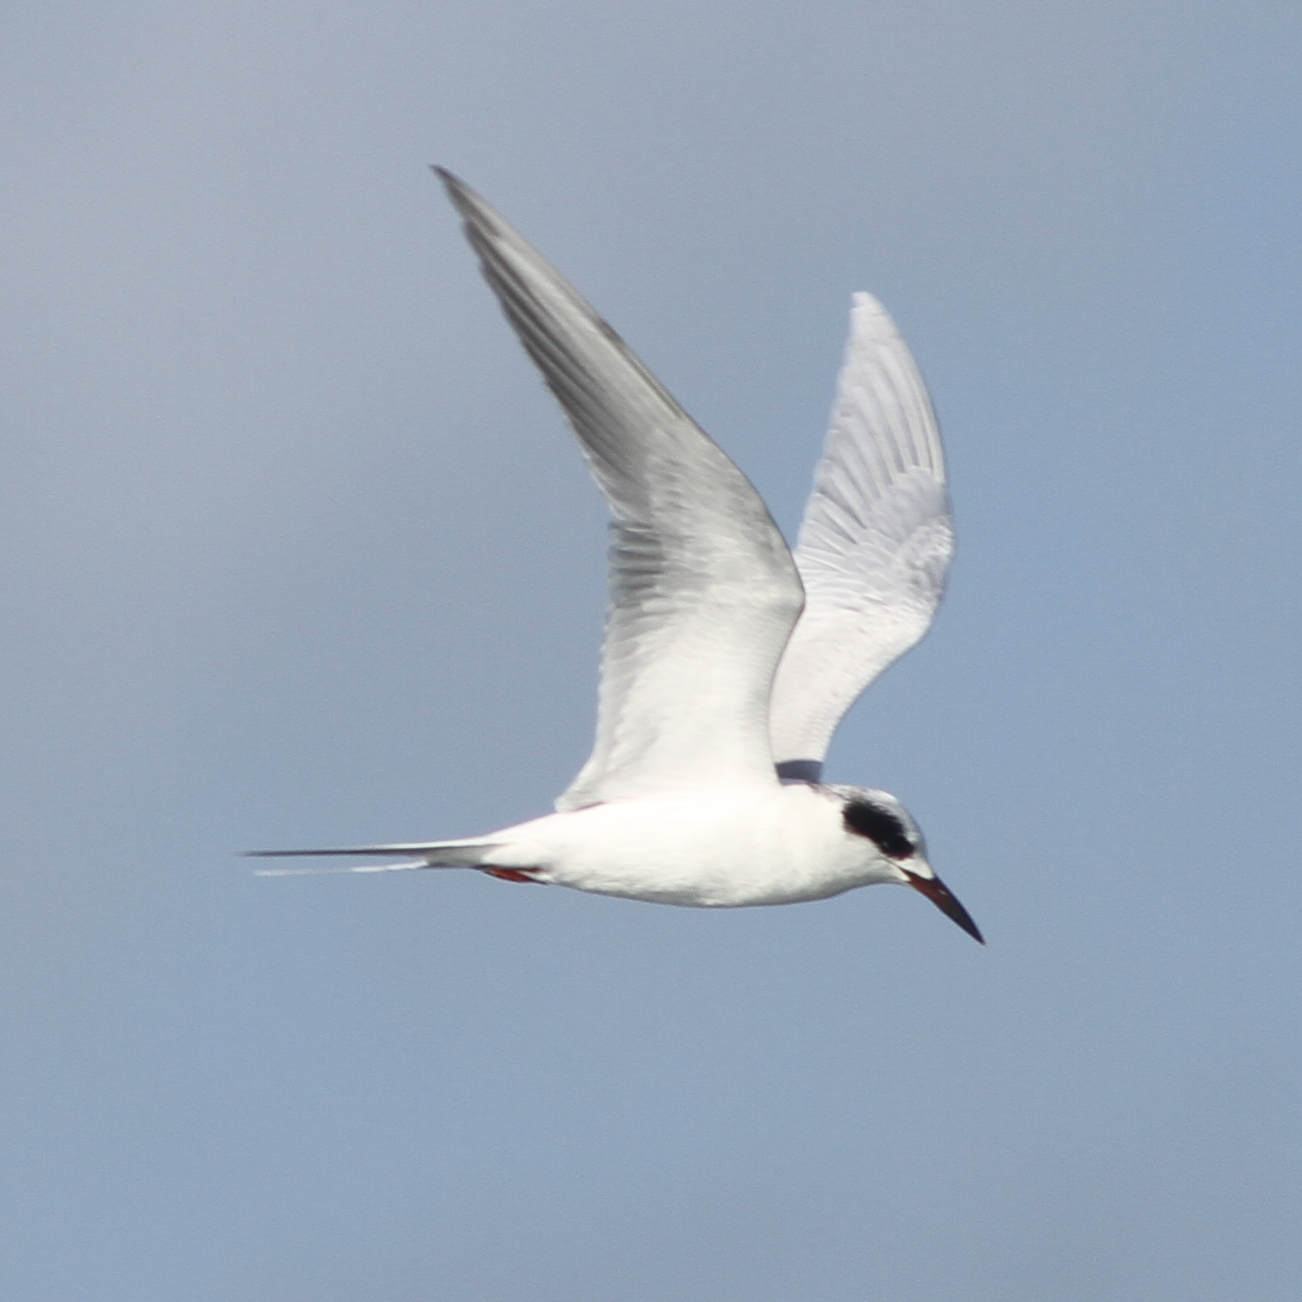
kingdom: Animalia
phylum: Chordata
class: Aves
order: Charadriiformes
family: Laridae
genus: Sterna
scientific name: Sterna forsteri
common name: Forster's tern
